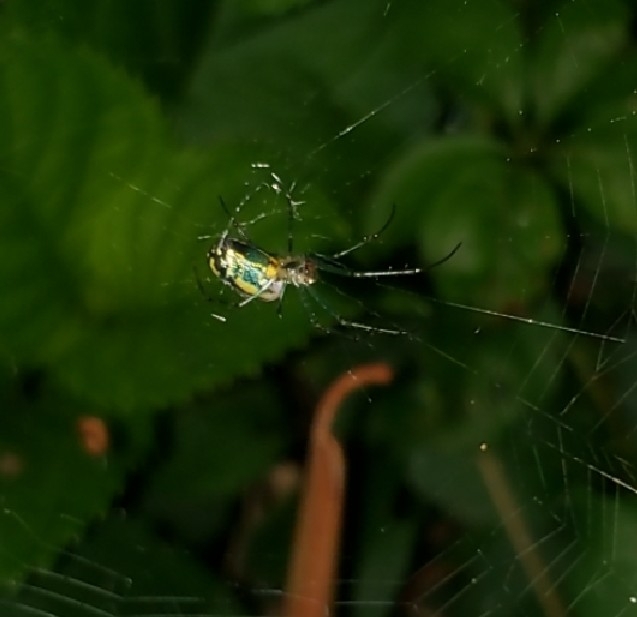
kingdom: Animalia
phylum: Arthropoda
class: Arachnida
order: Araneae
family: Tetragnathidae
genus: Leucauge
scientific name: Leucauge venusta
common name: Longjawed orb weavers
